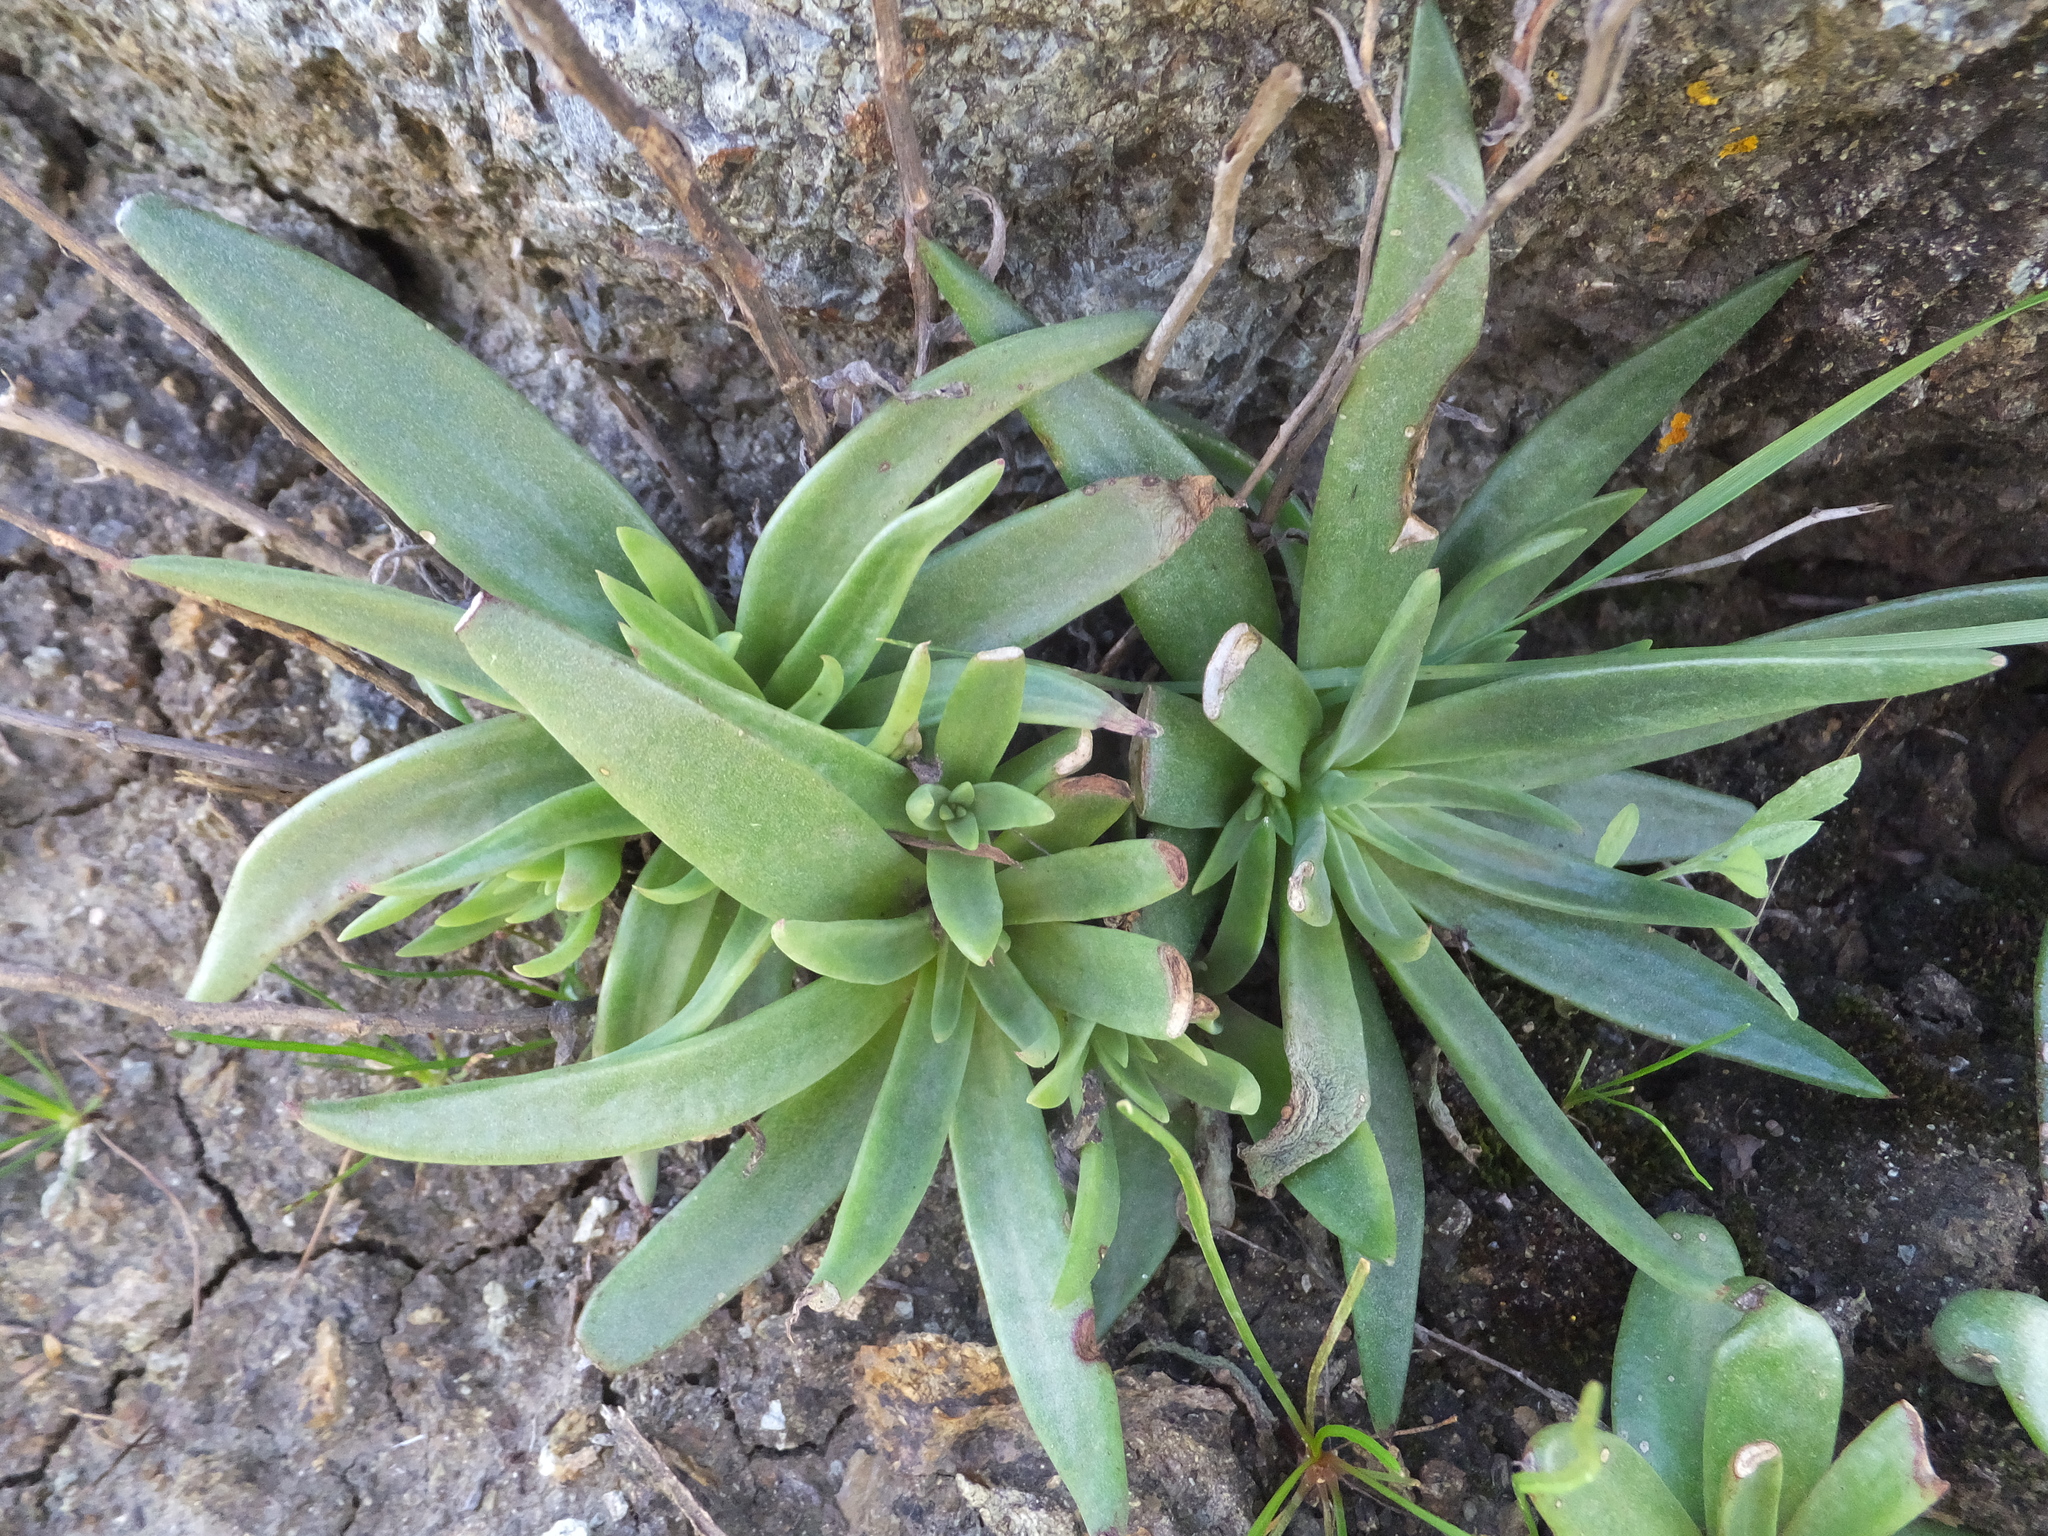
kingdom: Plantae
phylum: Tracheophyta
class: Magnoliopsida
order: Saxifragales
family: Crassulaceae
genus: Dudleya
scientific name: Dudleya abramsii
